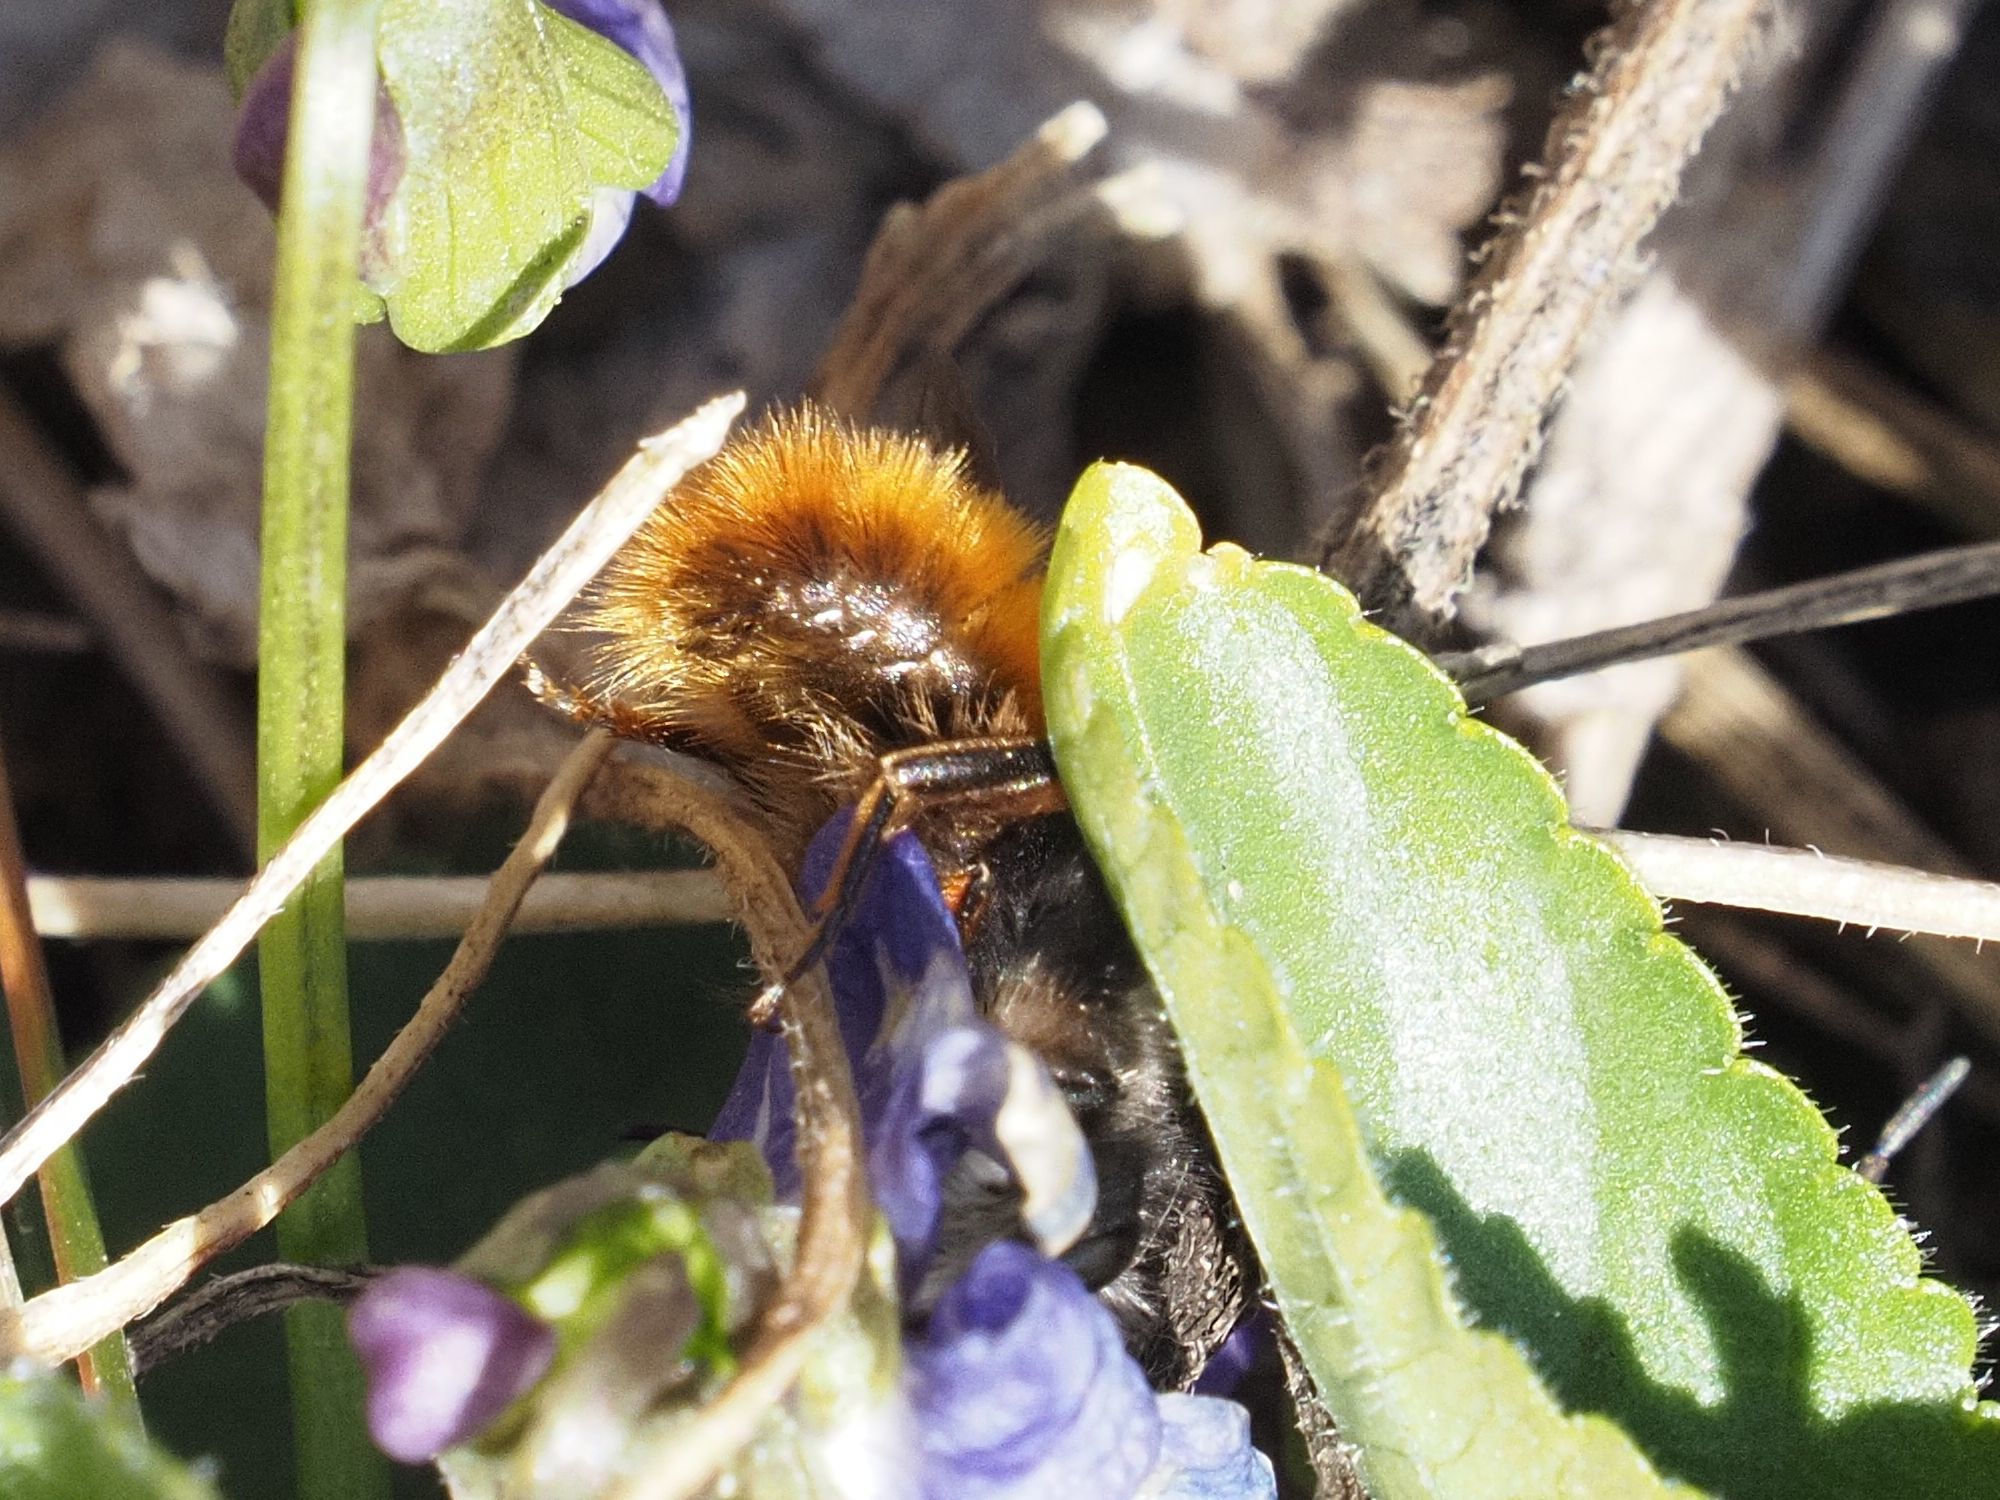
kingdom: Animalia
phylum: Arthropoda
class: Insecta
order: Hymenoptera
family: Megachilidae
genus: Osmia
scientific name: Osmia cornuta
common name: Mason bee
